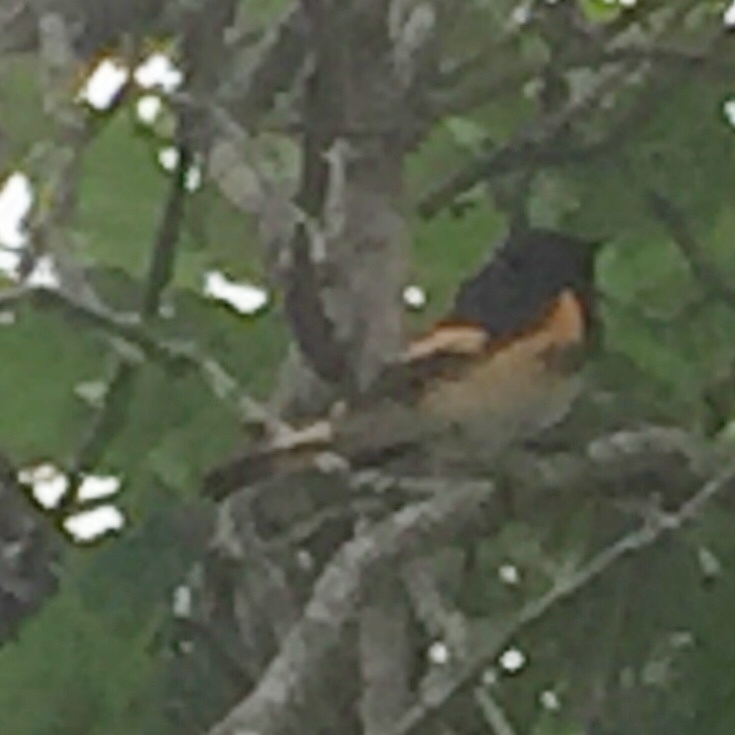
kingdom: Animalia
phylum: Chordata
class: Aves
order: Passeriformes
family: Parulidae
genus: Setophaga
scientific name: Setophaga ruticilla
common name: American redstart
